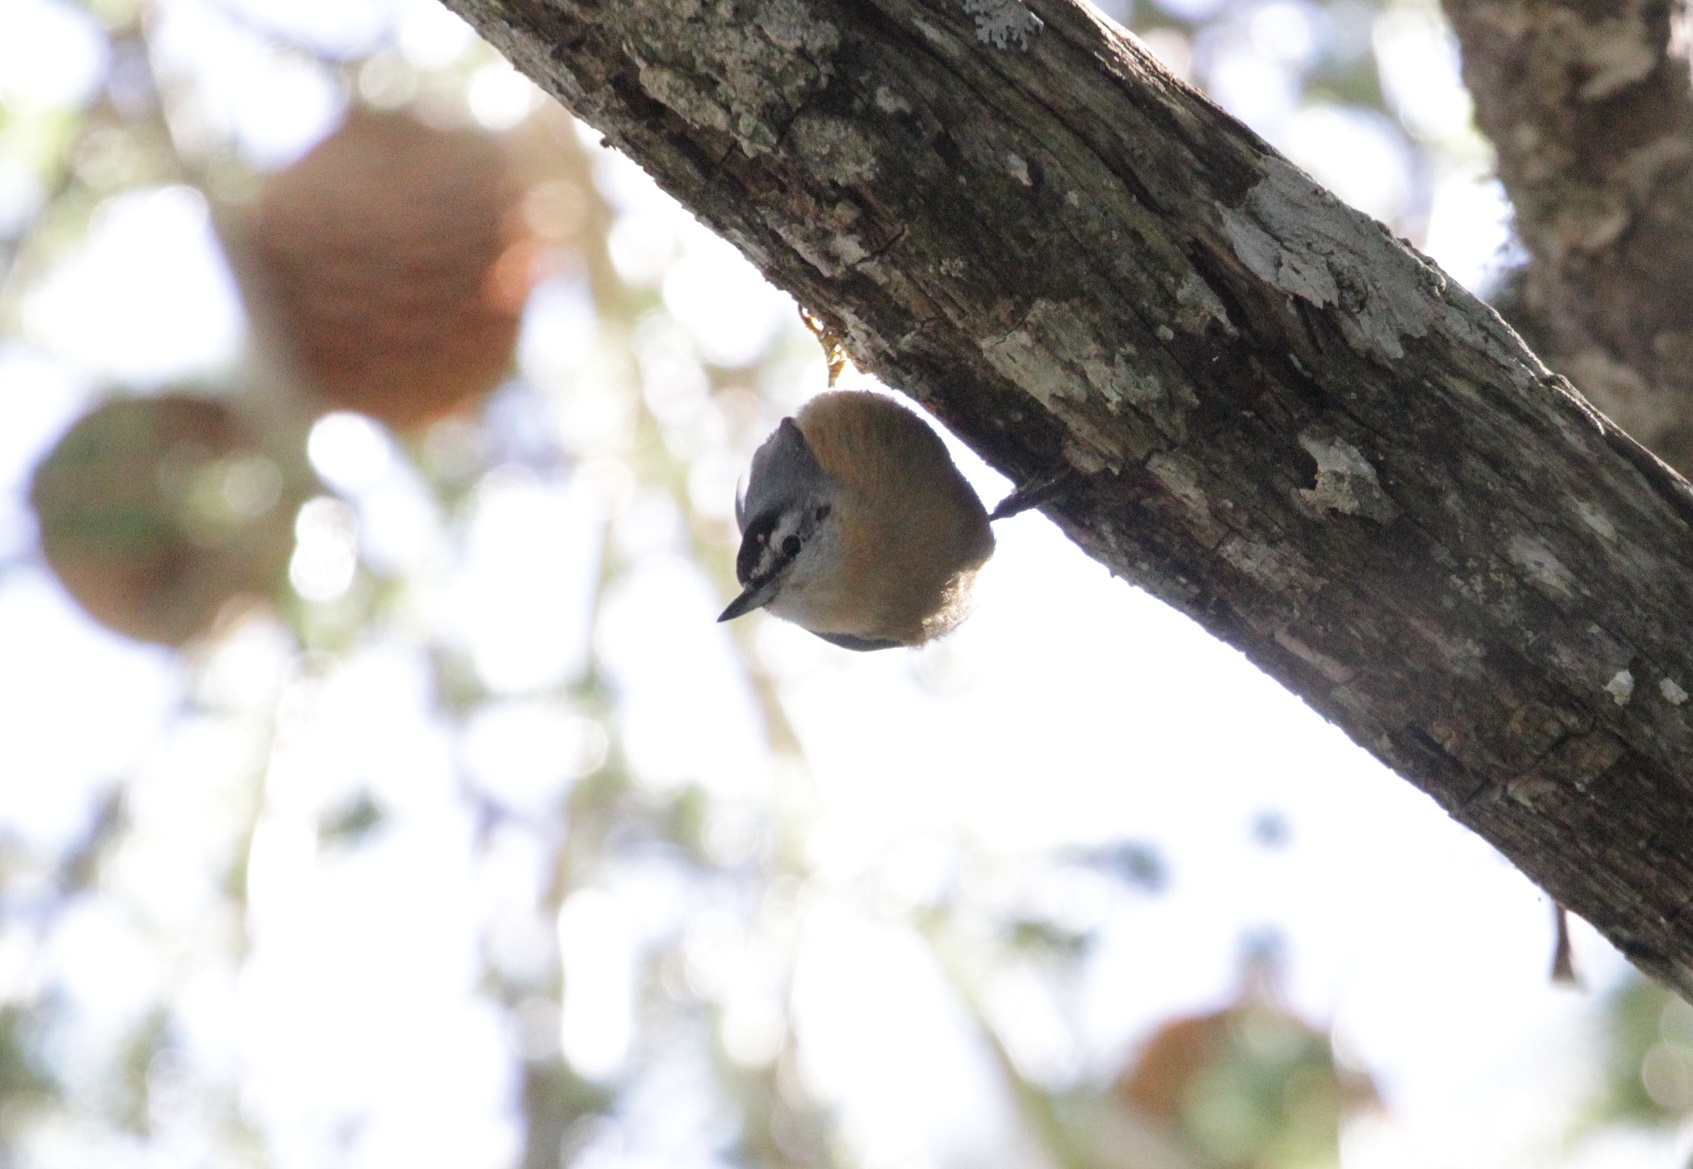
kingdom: Animalia
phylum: Chordata
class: Aves
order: Passeriformes
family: Sittidae
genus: Sitta
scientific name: Sitta ledanti
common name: Algerian nuthatch
